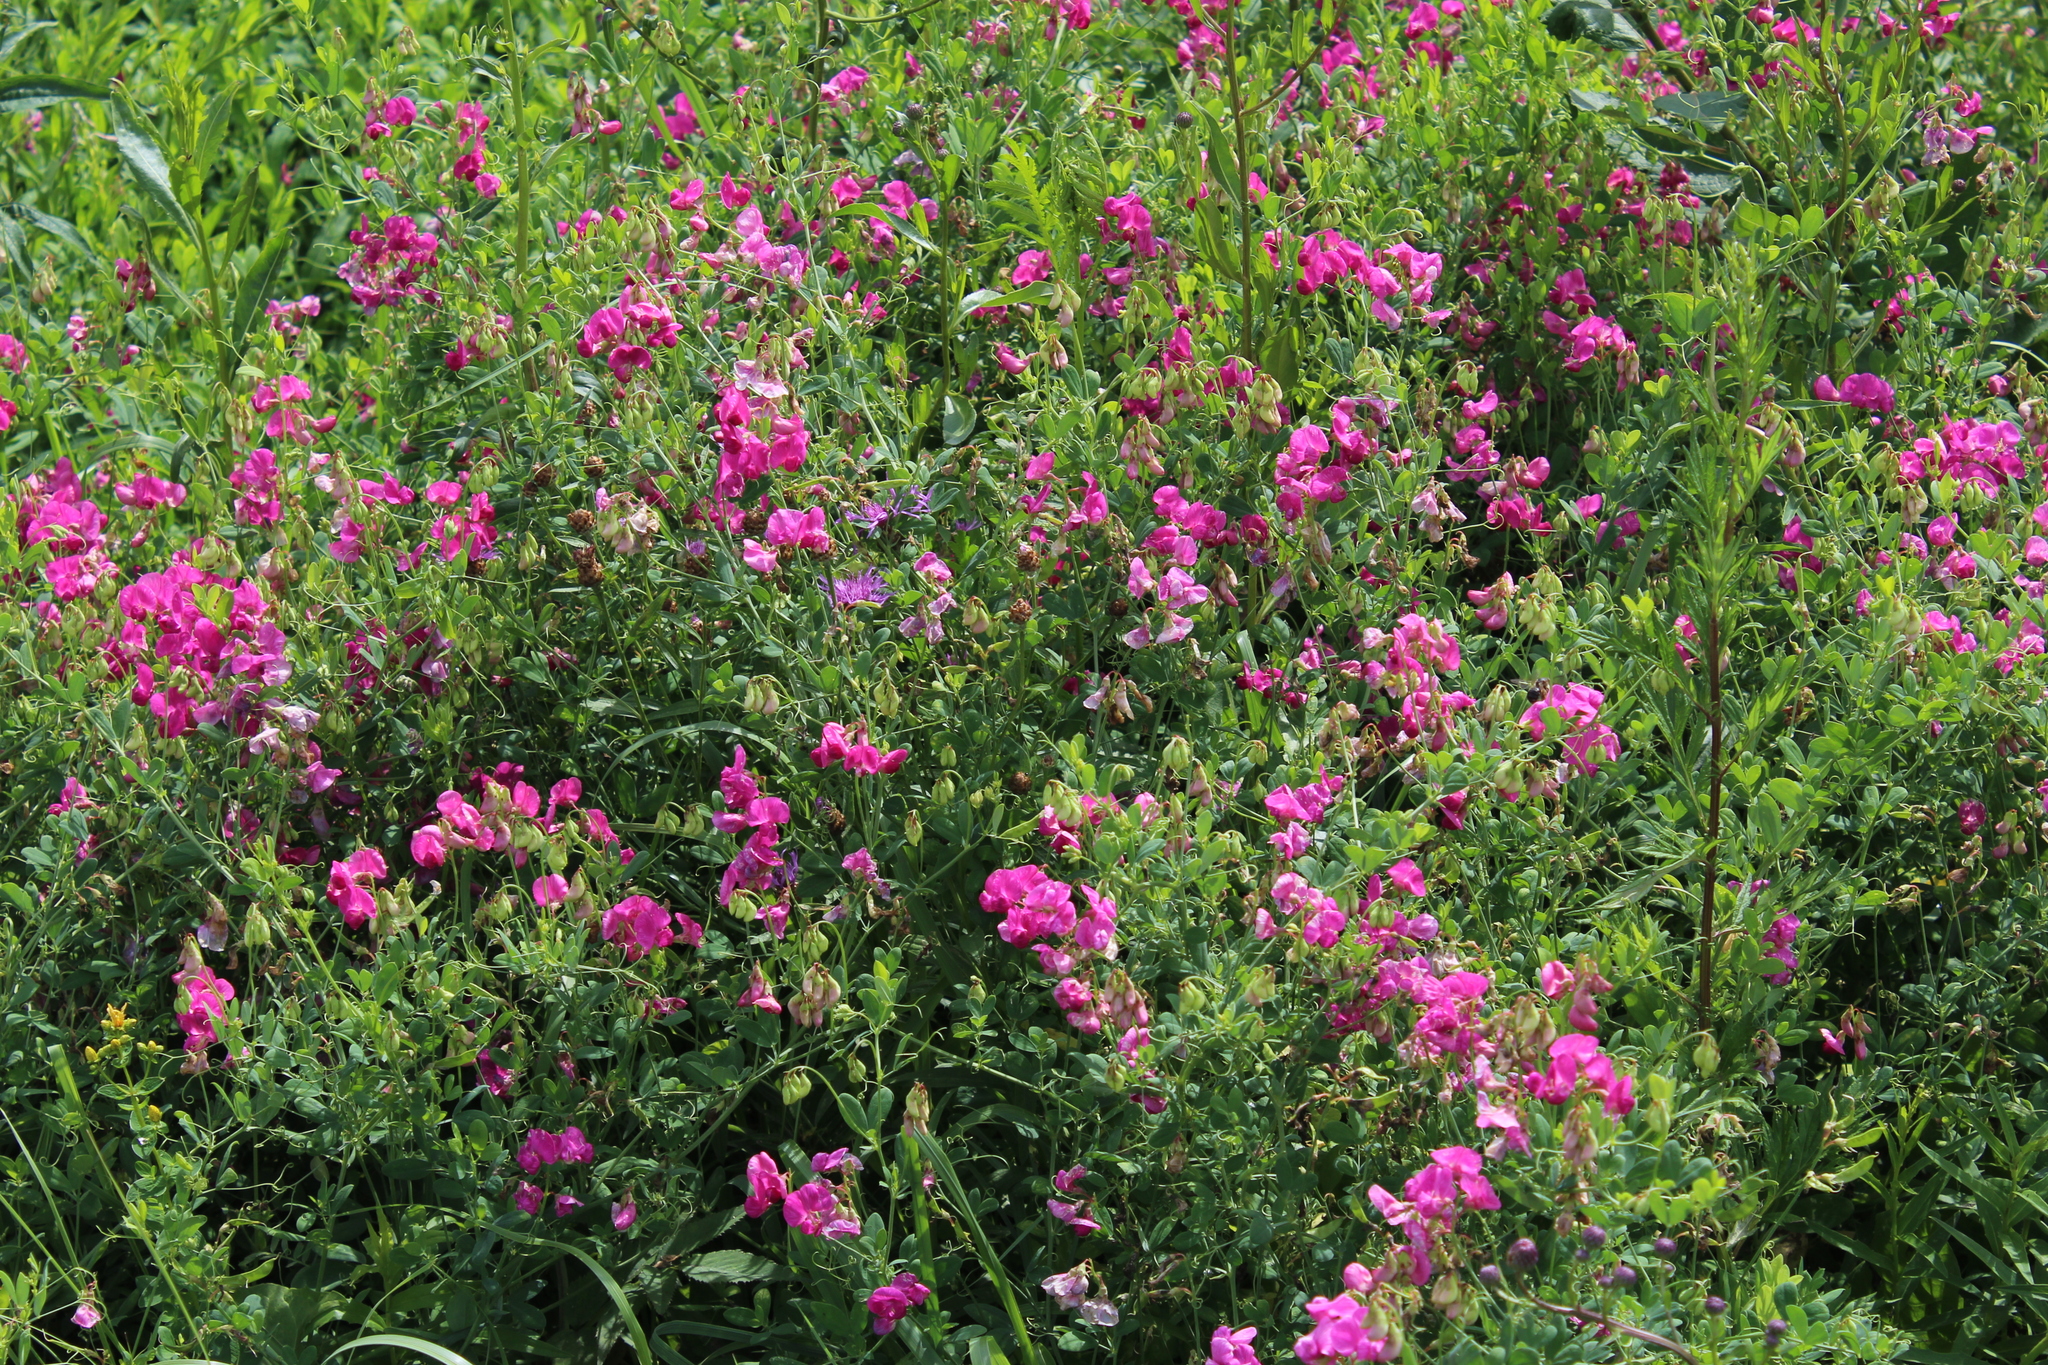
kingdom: Plantae
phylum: Tracheophyta
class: Magnoliopsida
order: Fabales
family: Fabaceae
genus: Lathyrus
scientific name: Lathyrus tuberosus
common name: Tuberous pea
